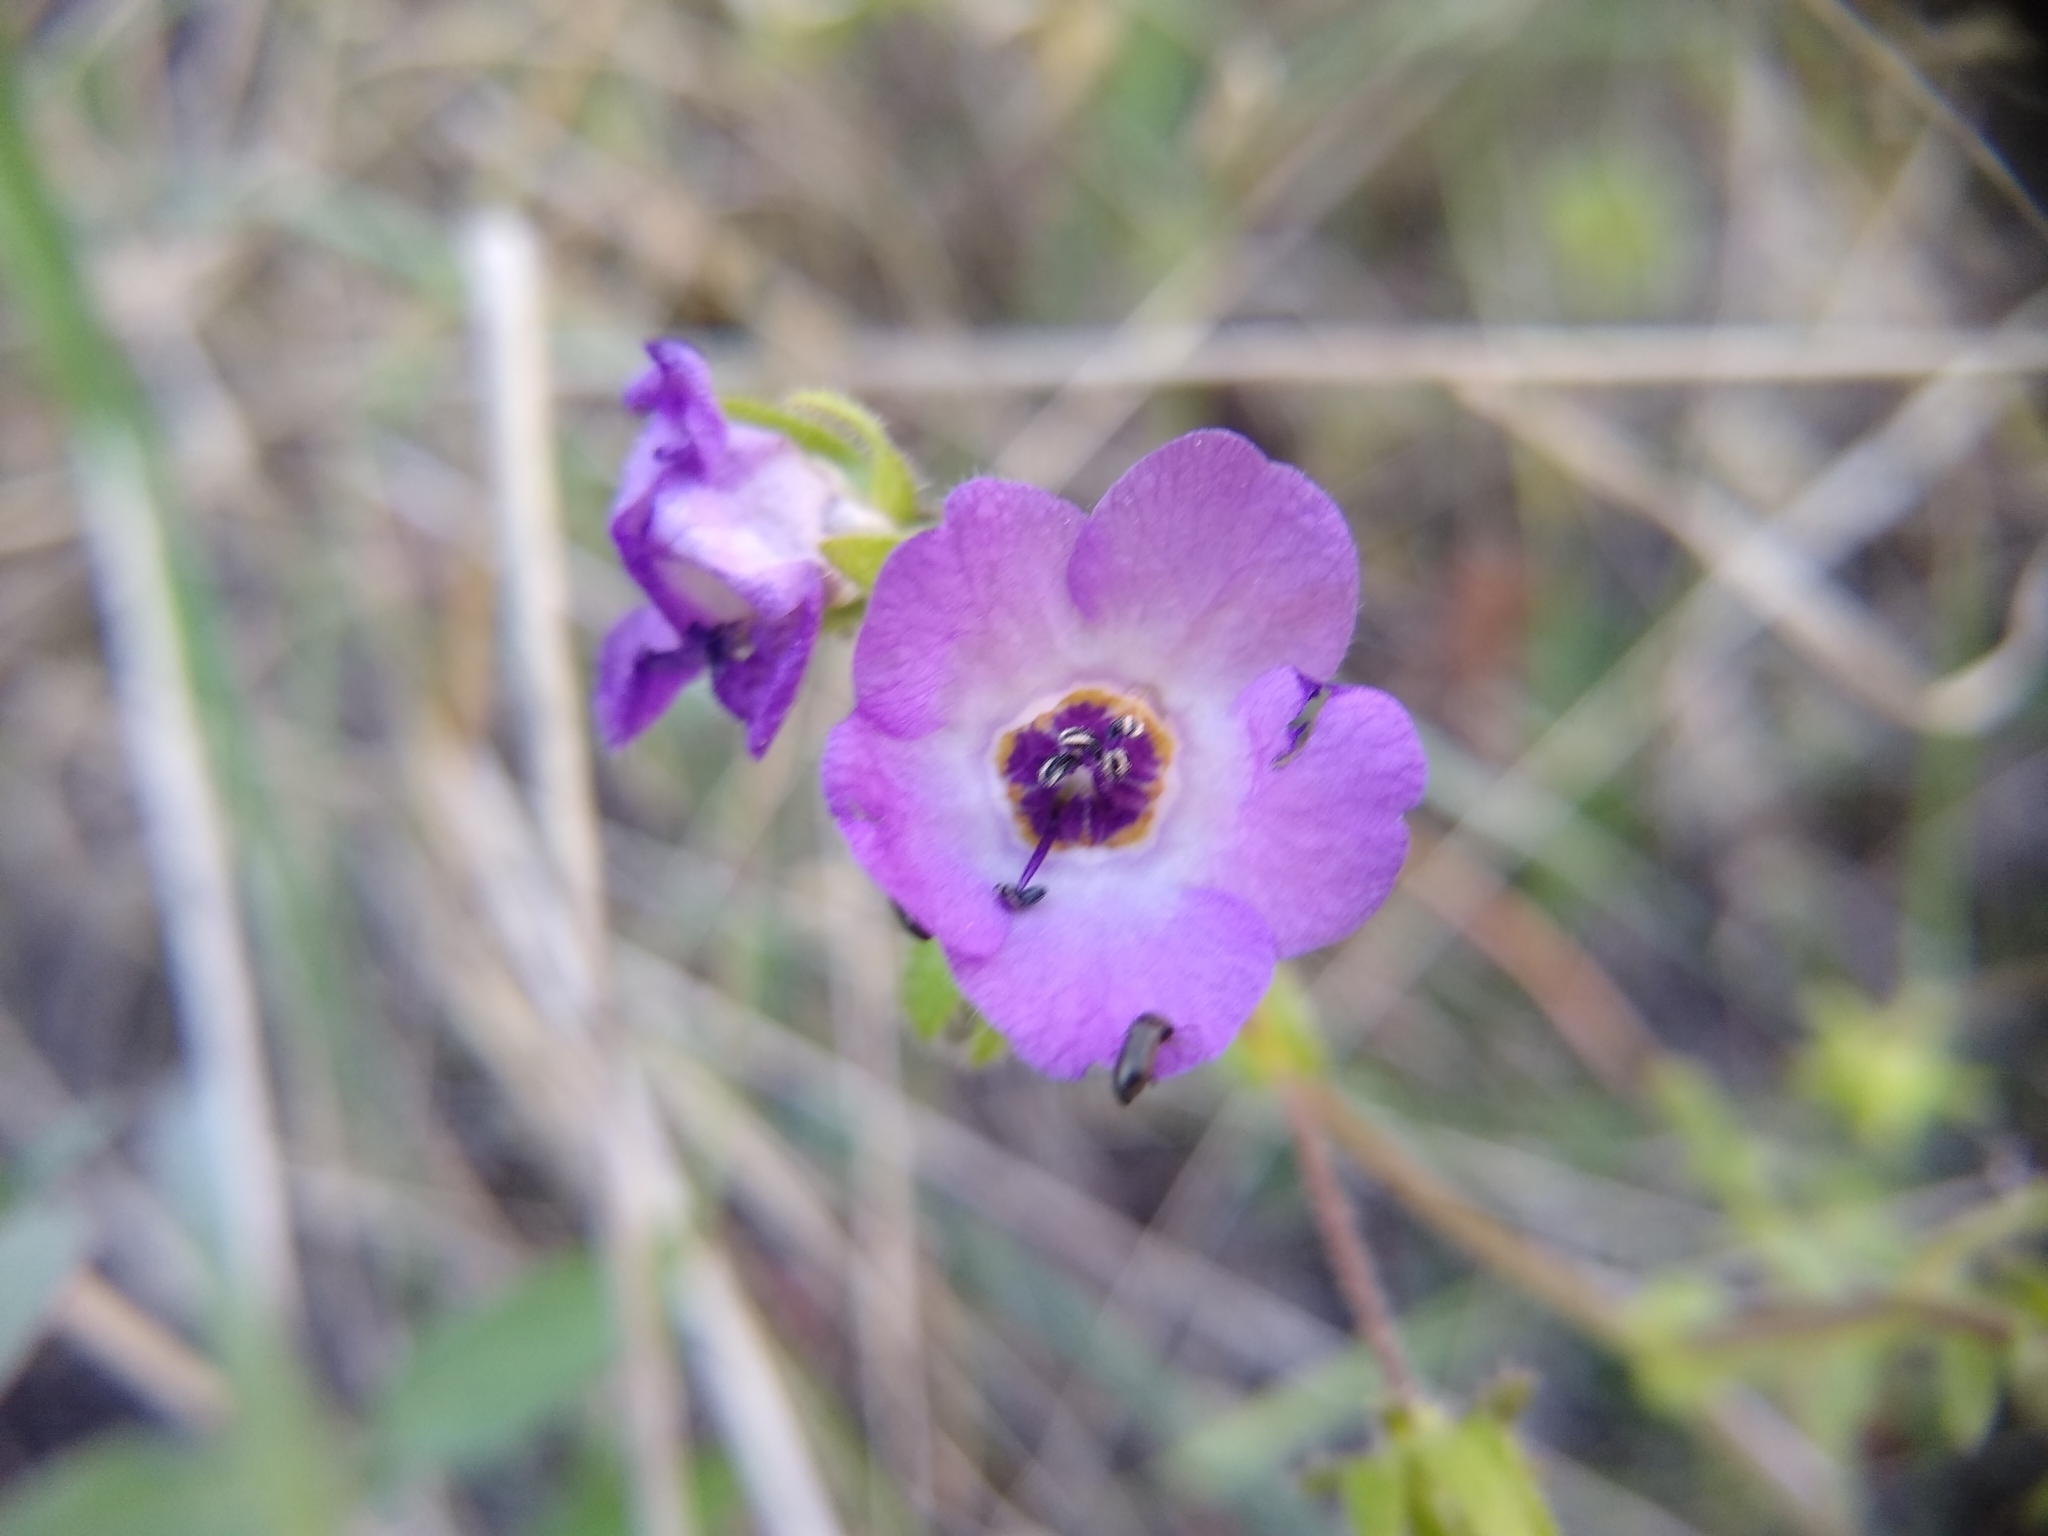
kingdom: Plantae
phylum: Tracheophyta
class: Magnoliopsida
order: Boraginales
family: Hydrophyllaceae
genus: Pholistoma
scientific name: Pholistoma auritum
